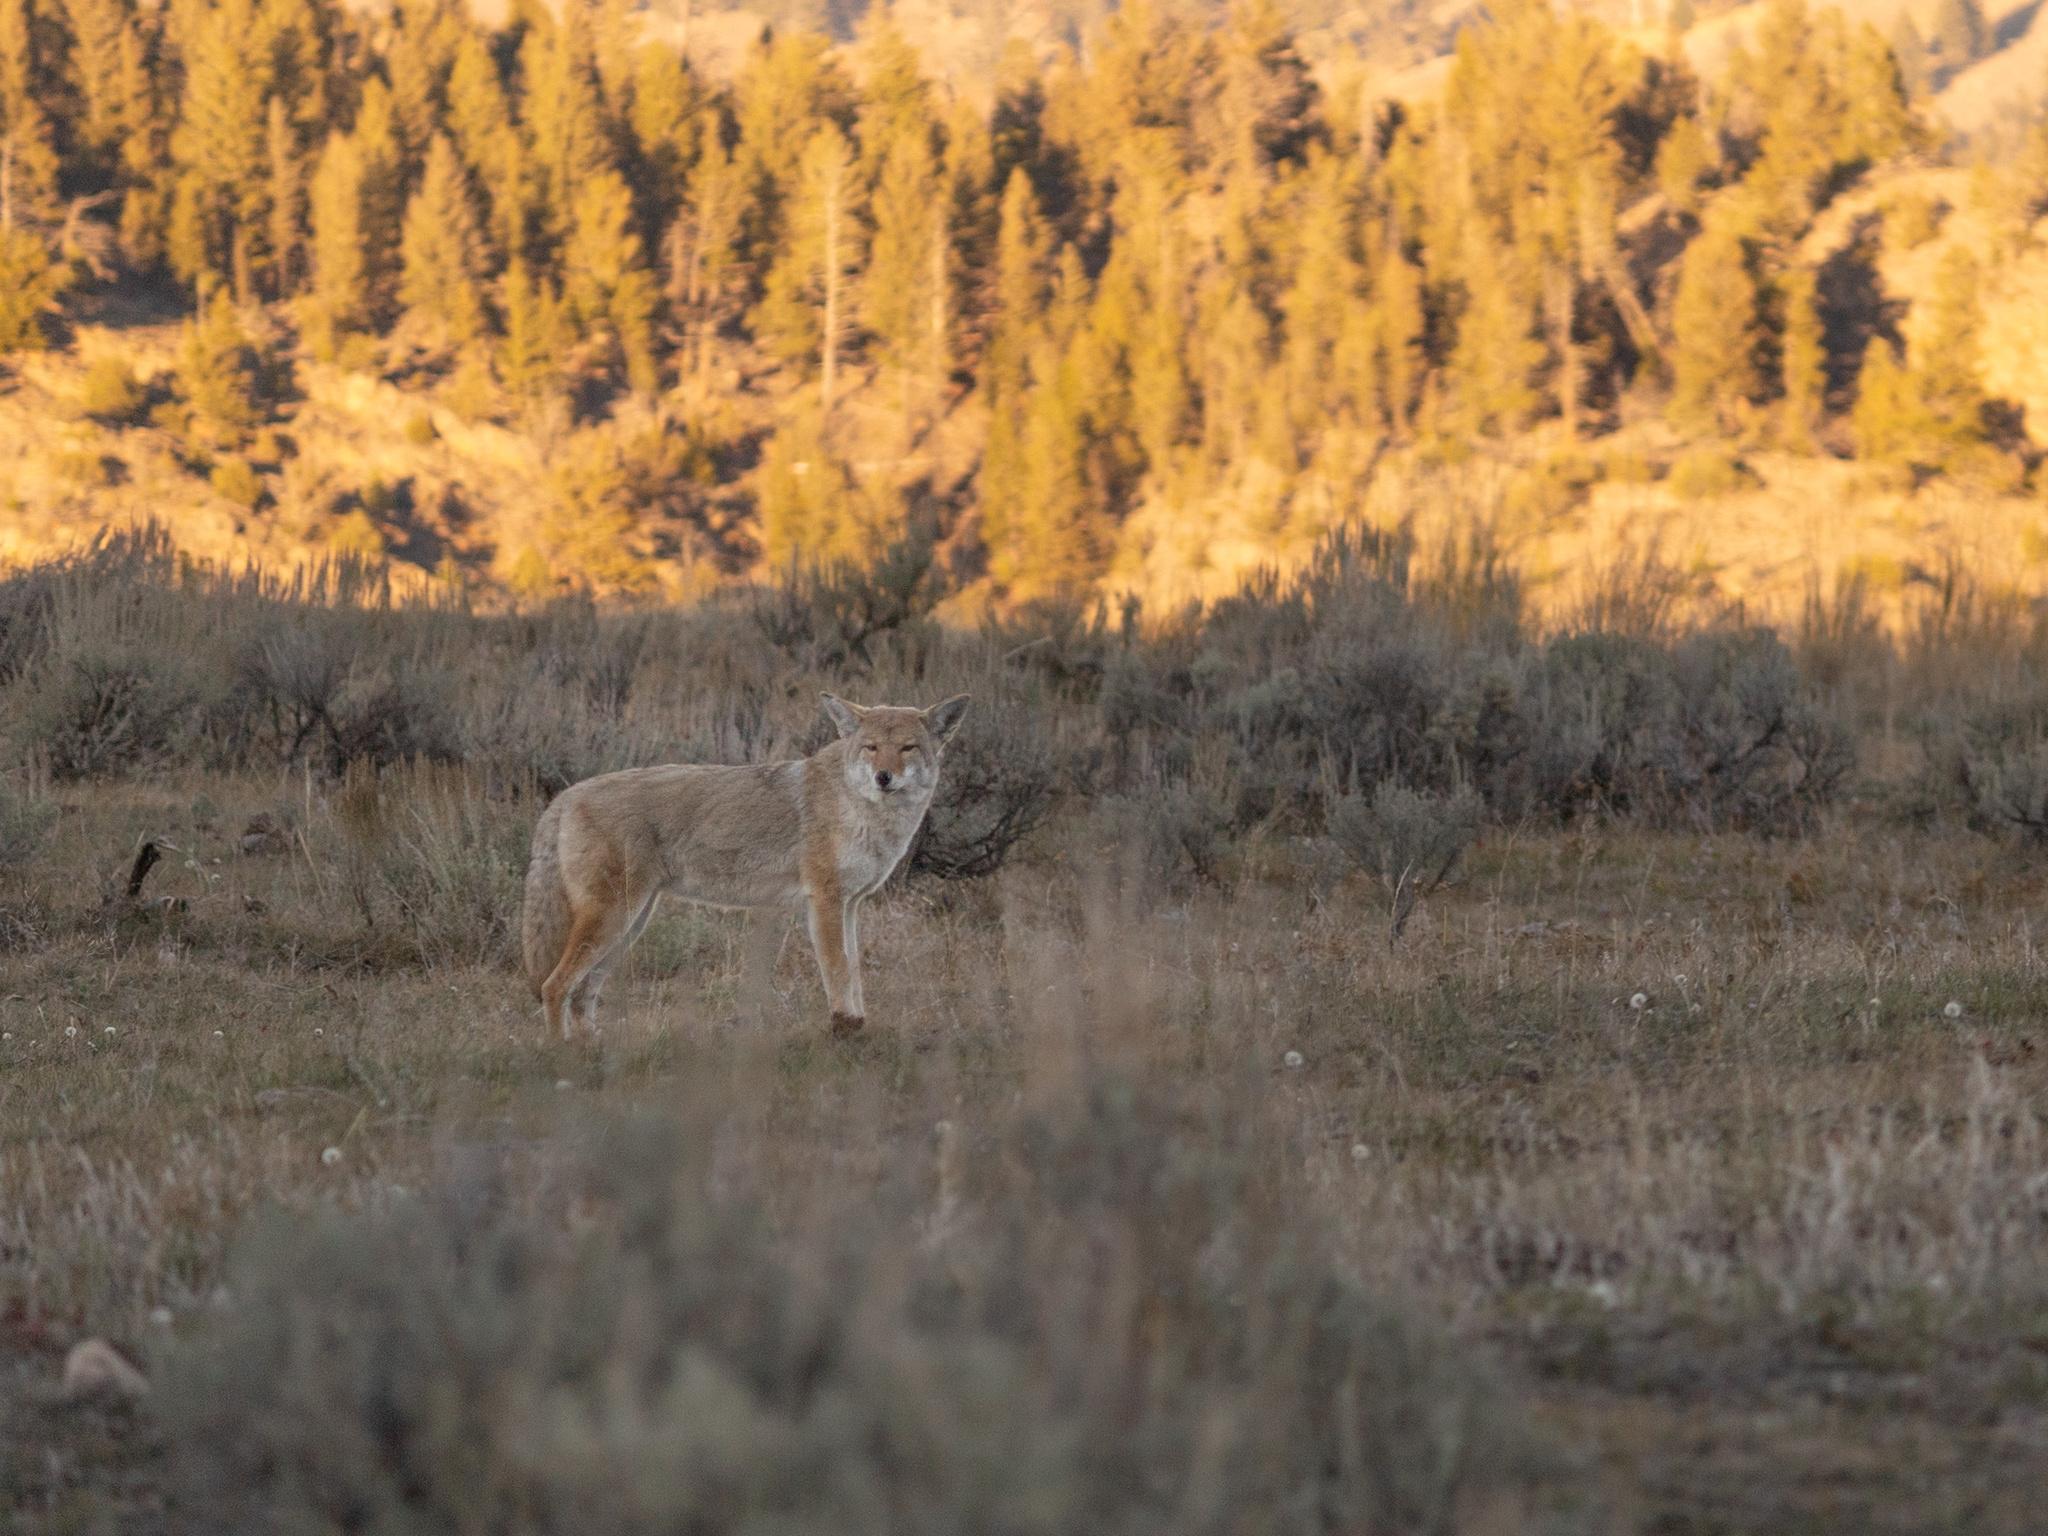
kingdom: Animalia
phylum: Chordata
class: Mammalia
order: Carnivora
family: Canidae
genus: Canis
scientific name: Canis latrans
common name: Coyote
